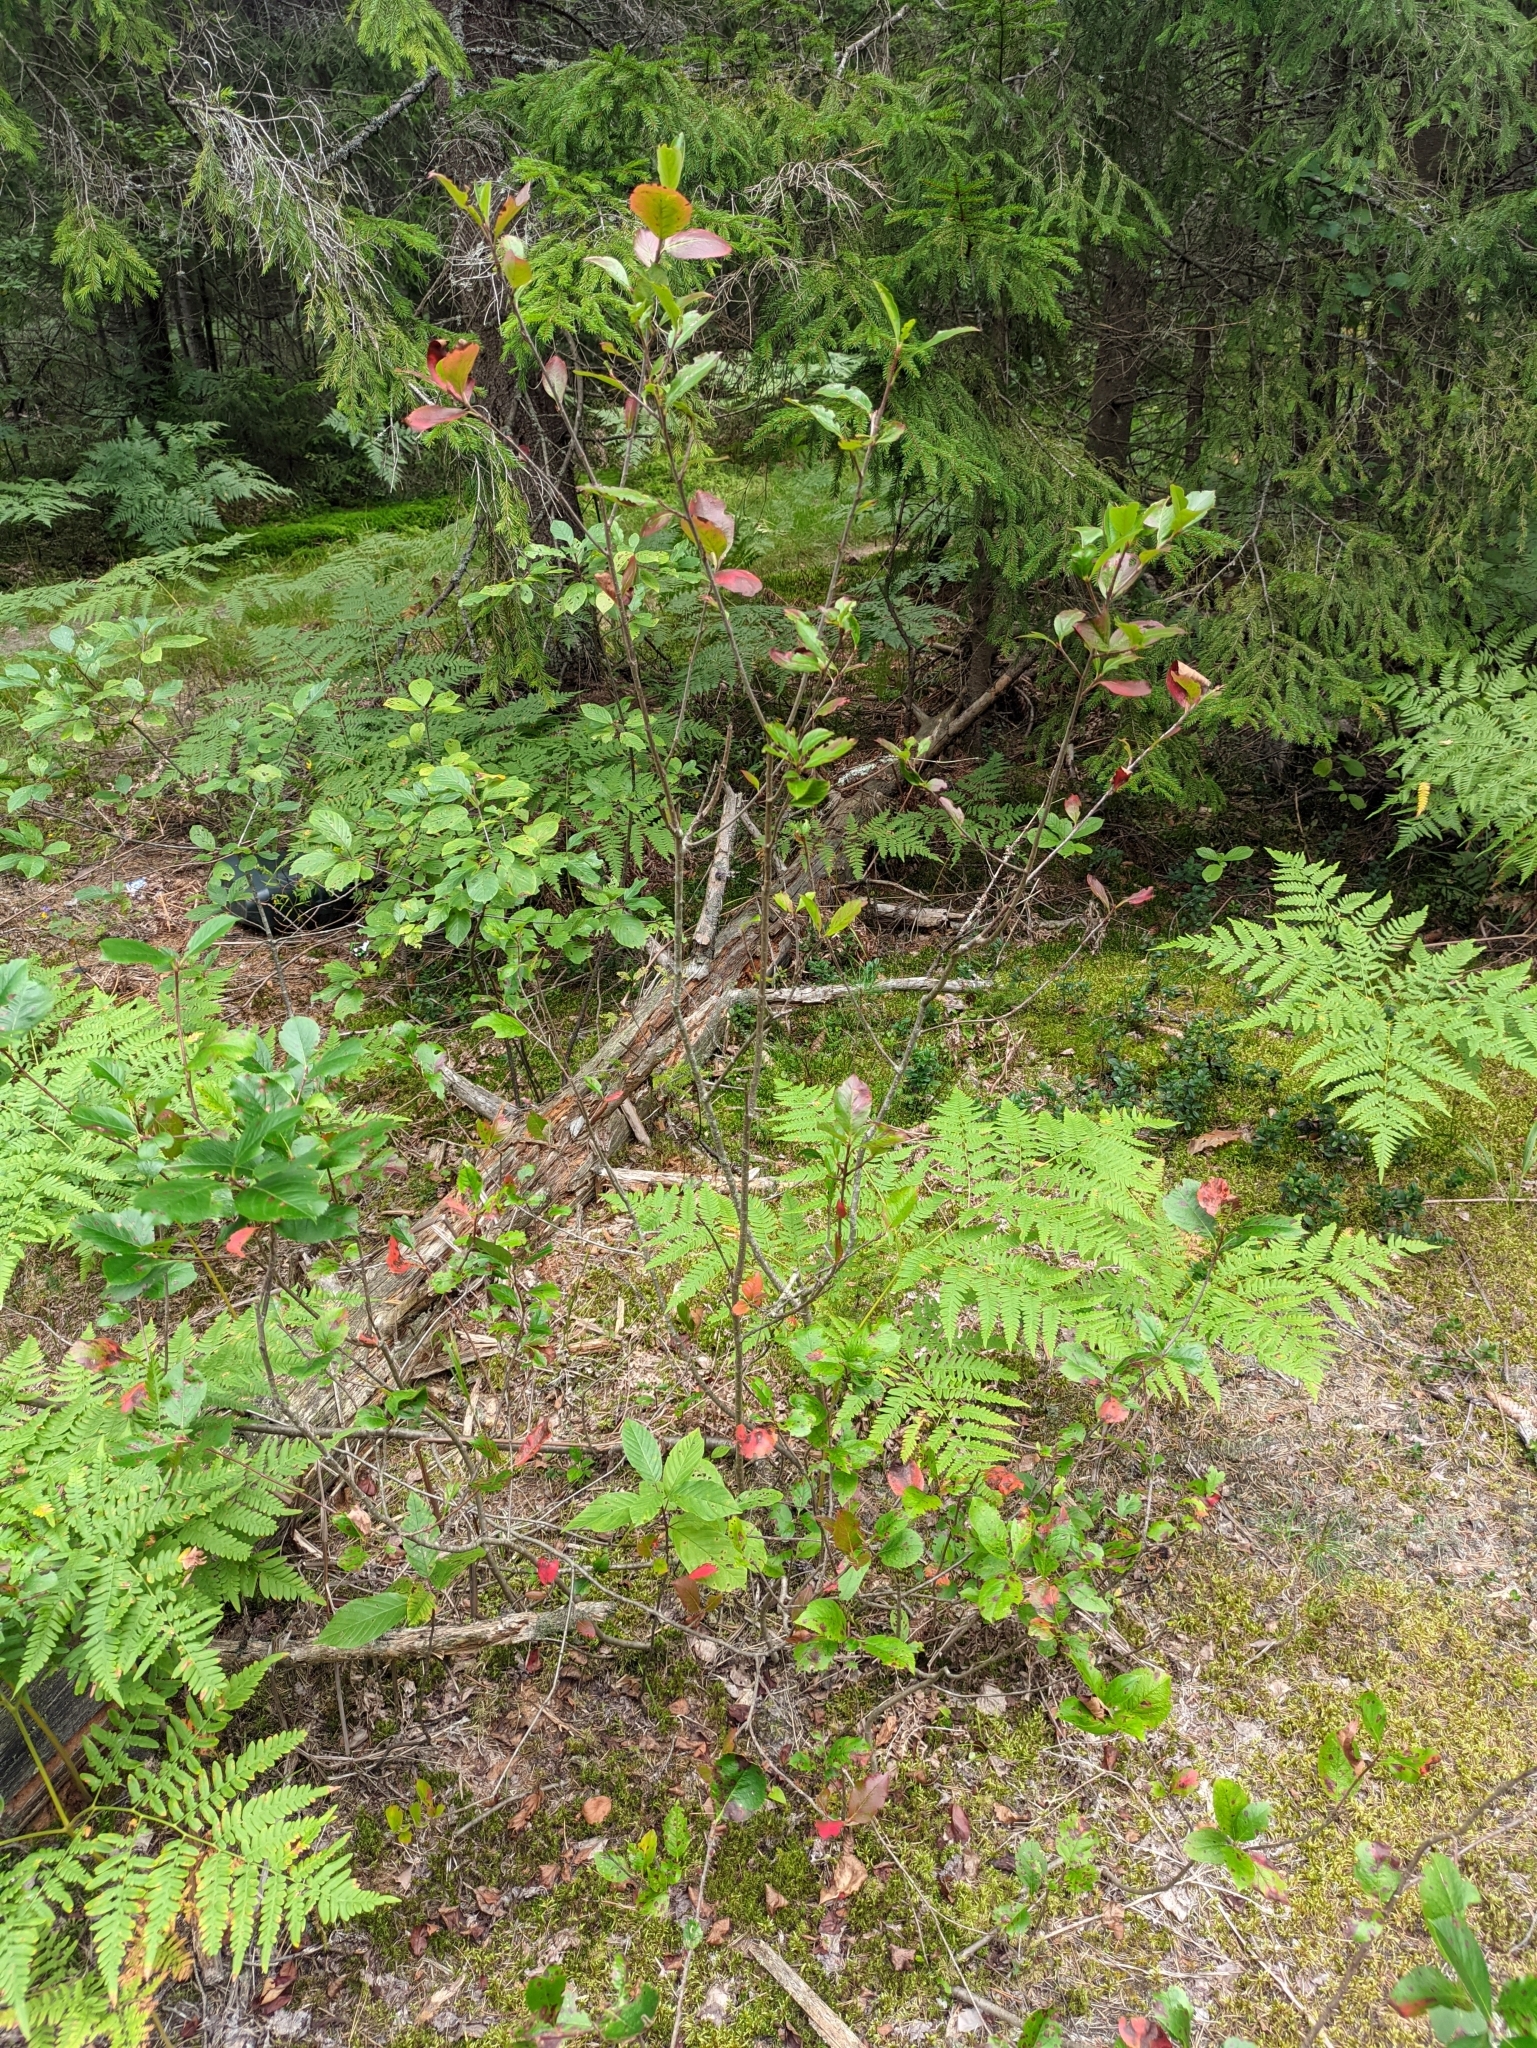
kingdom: Plantae
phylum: Tracheophyta
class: Magnoliopsida
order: Rosales
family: Rosaceae
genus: Sorbaronia
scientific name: Sorbaronia arsenii
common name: Arsène's mountain-ash
